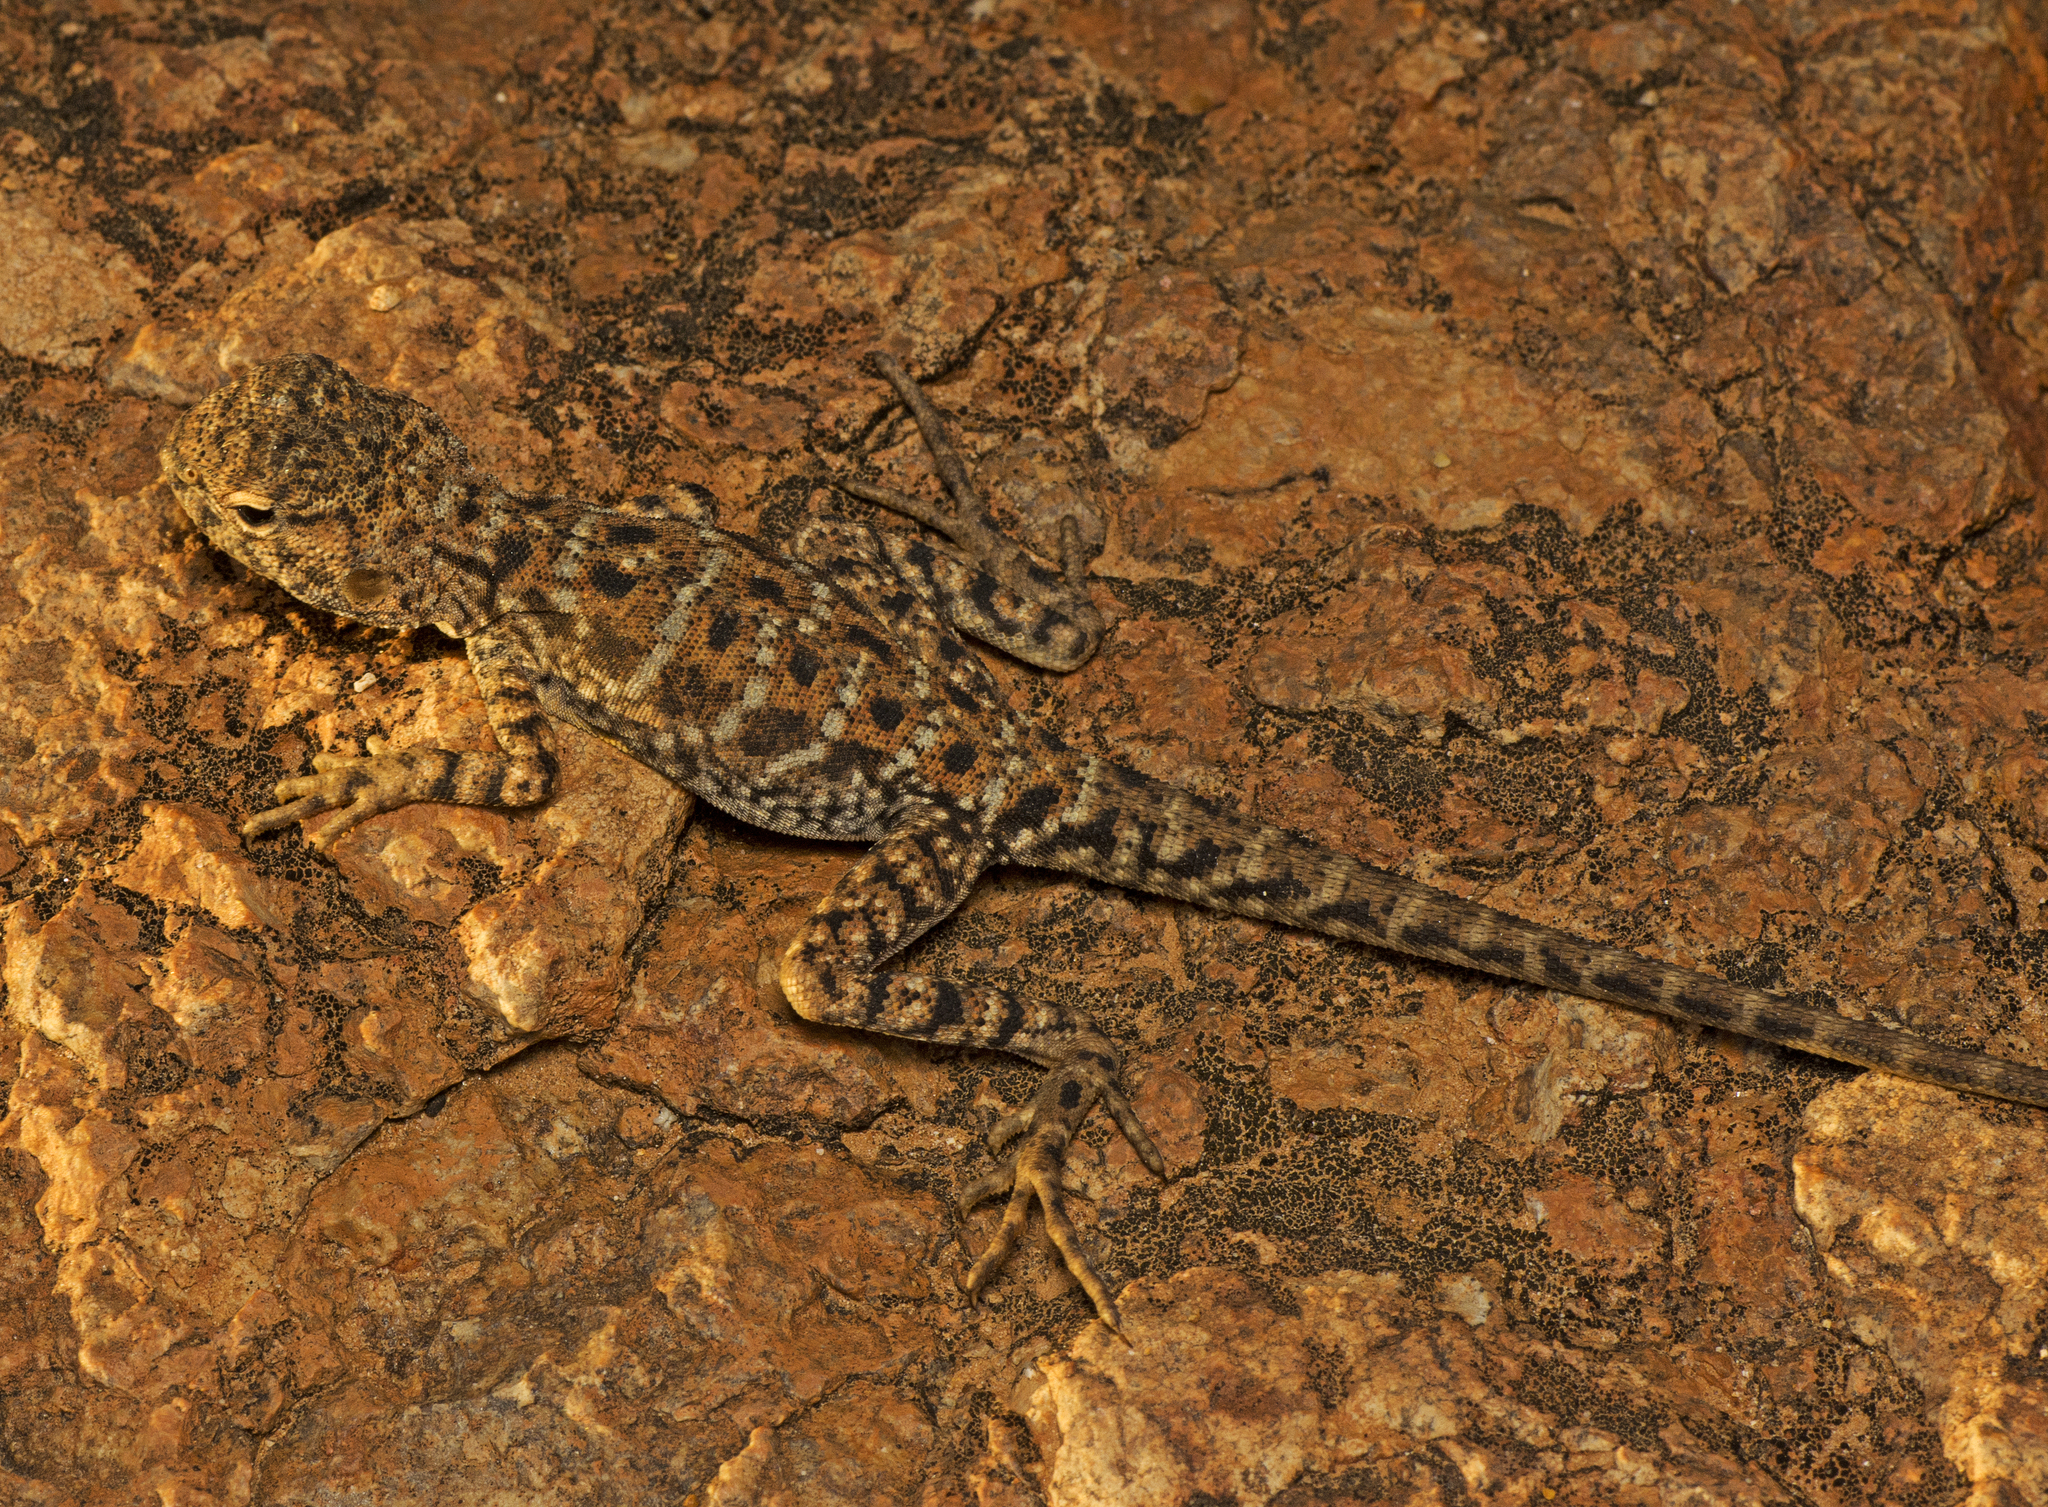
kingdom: Animalia
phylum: Chordata
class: Squamata
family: Agamidae
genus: Ctenophorus
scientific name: Ctenophorus slateri
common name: Slater’s dragon
